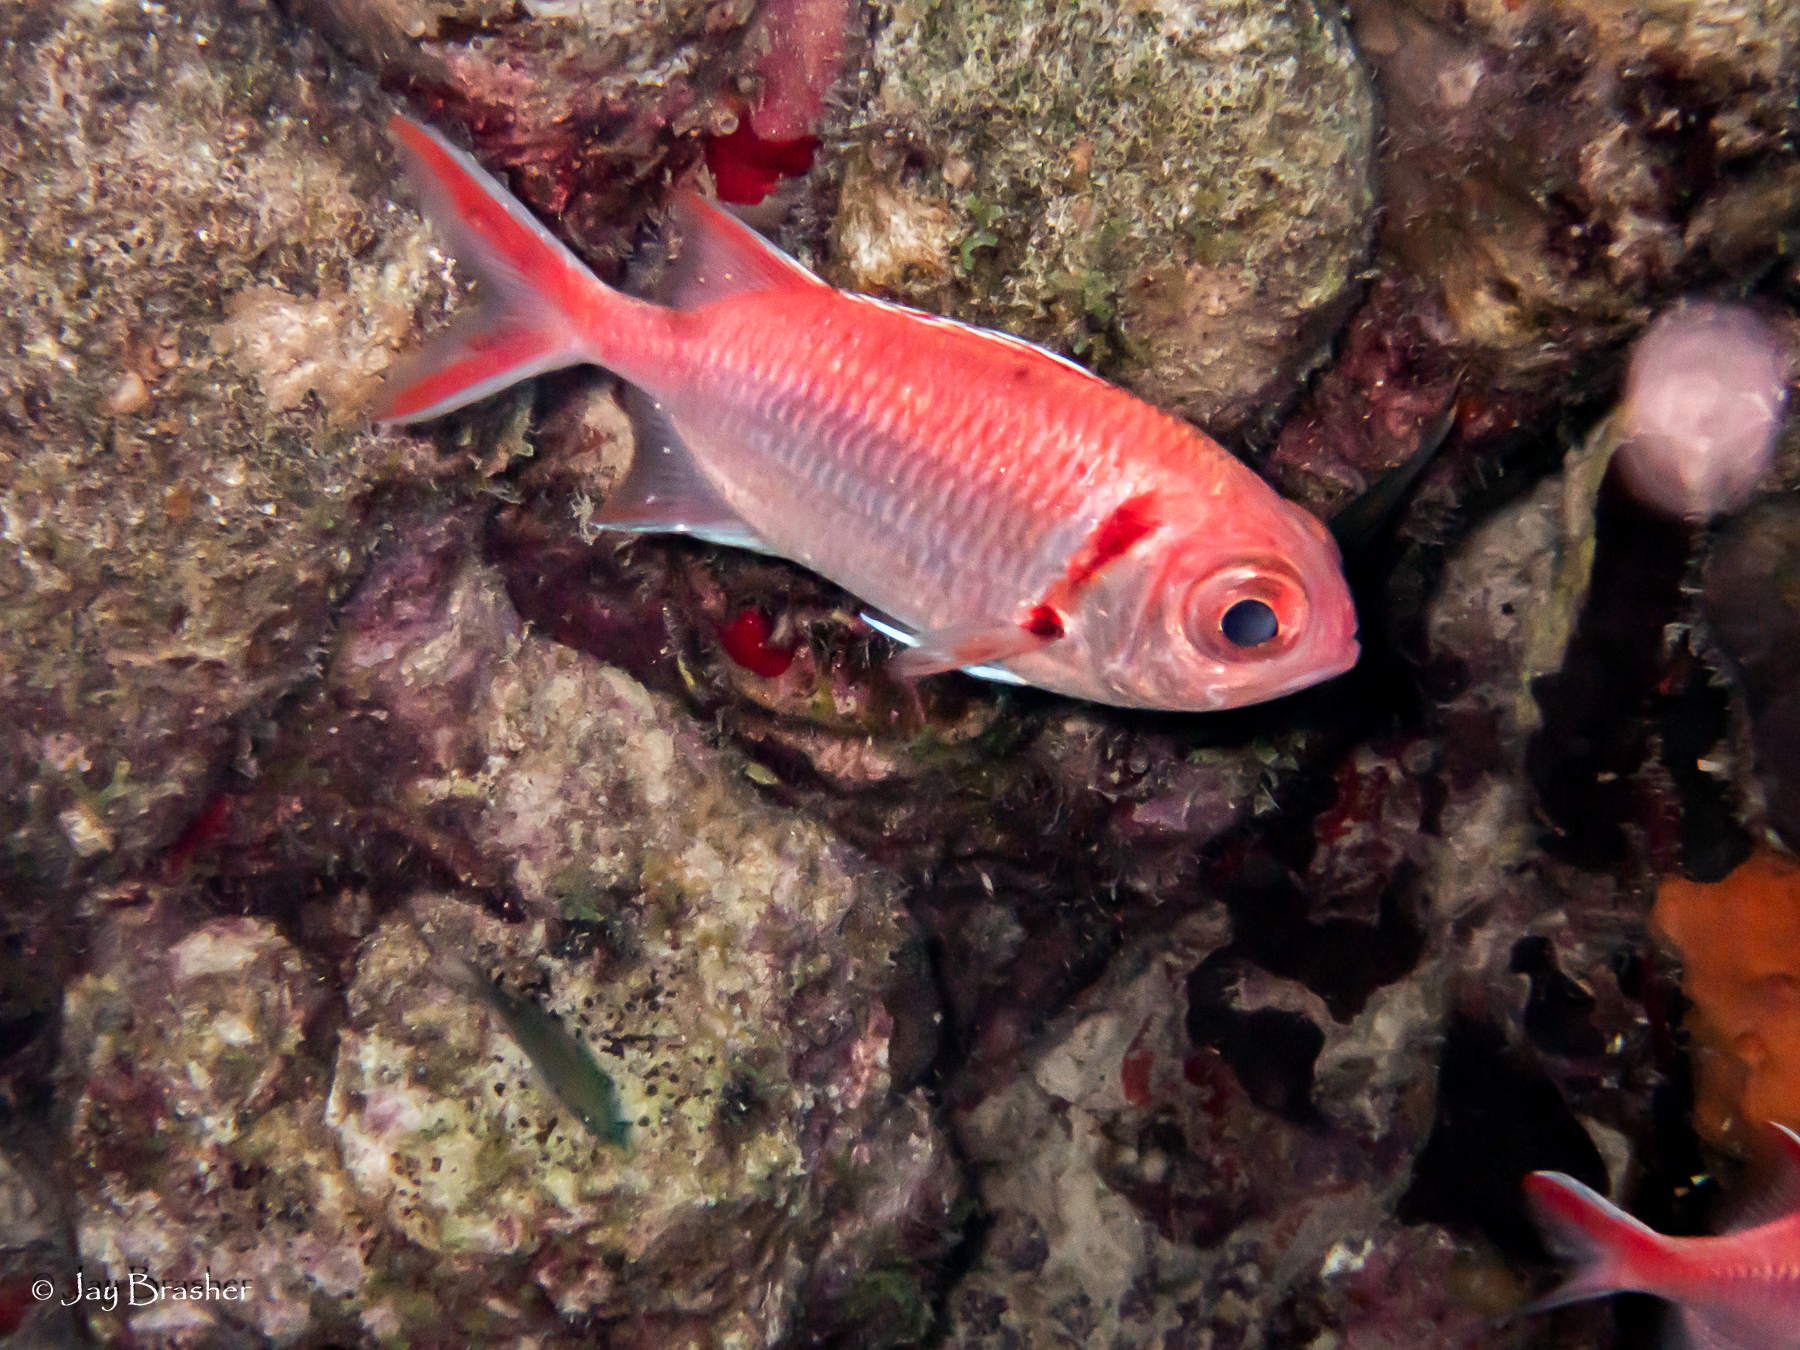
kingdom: Animalia
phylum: Chordata
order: Beryciformes
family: Holocentridae
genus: Myripristis
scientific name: Myripristis jacobus
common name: Blackbar soldierfish
